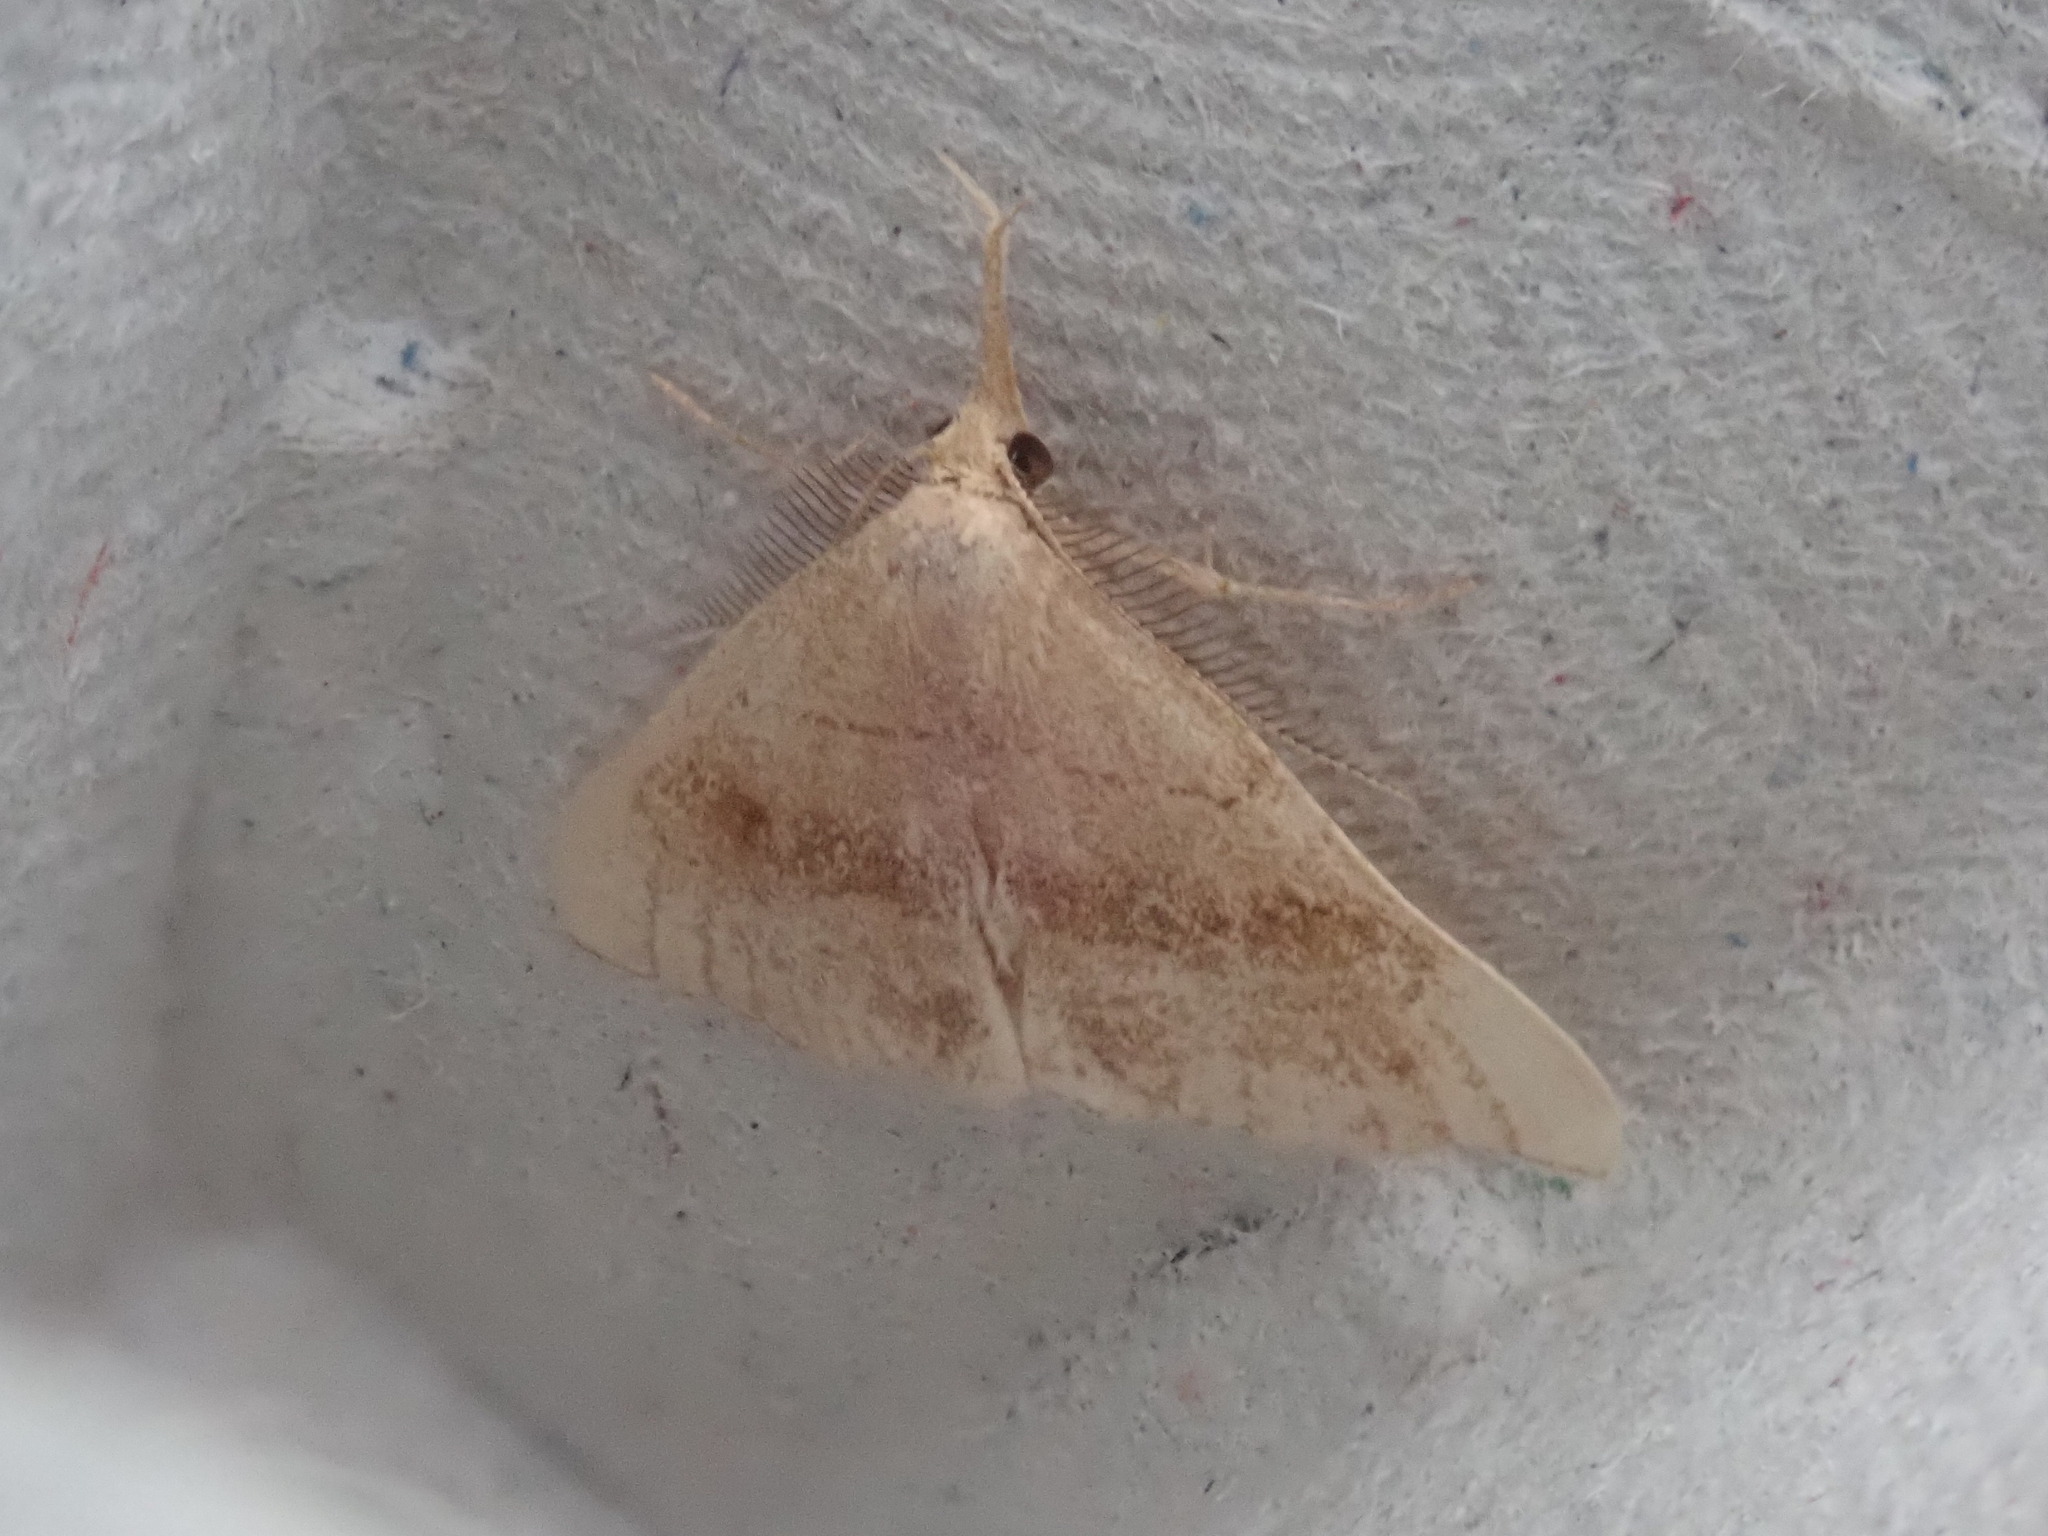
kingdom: Animalia
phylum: Arthropoda
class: Insecta
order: Lepidoptera
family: Erebidae
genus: Phalaenostola
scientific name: Phalaenostola eumelusalis
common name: Dark phalaenostola moth
